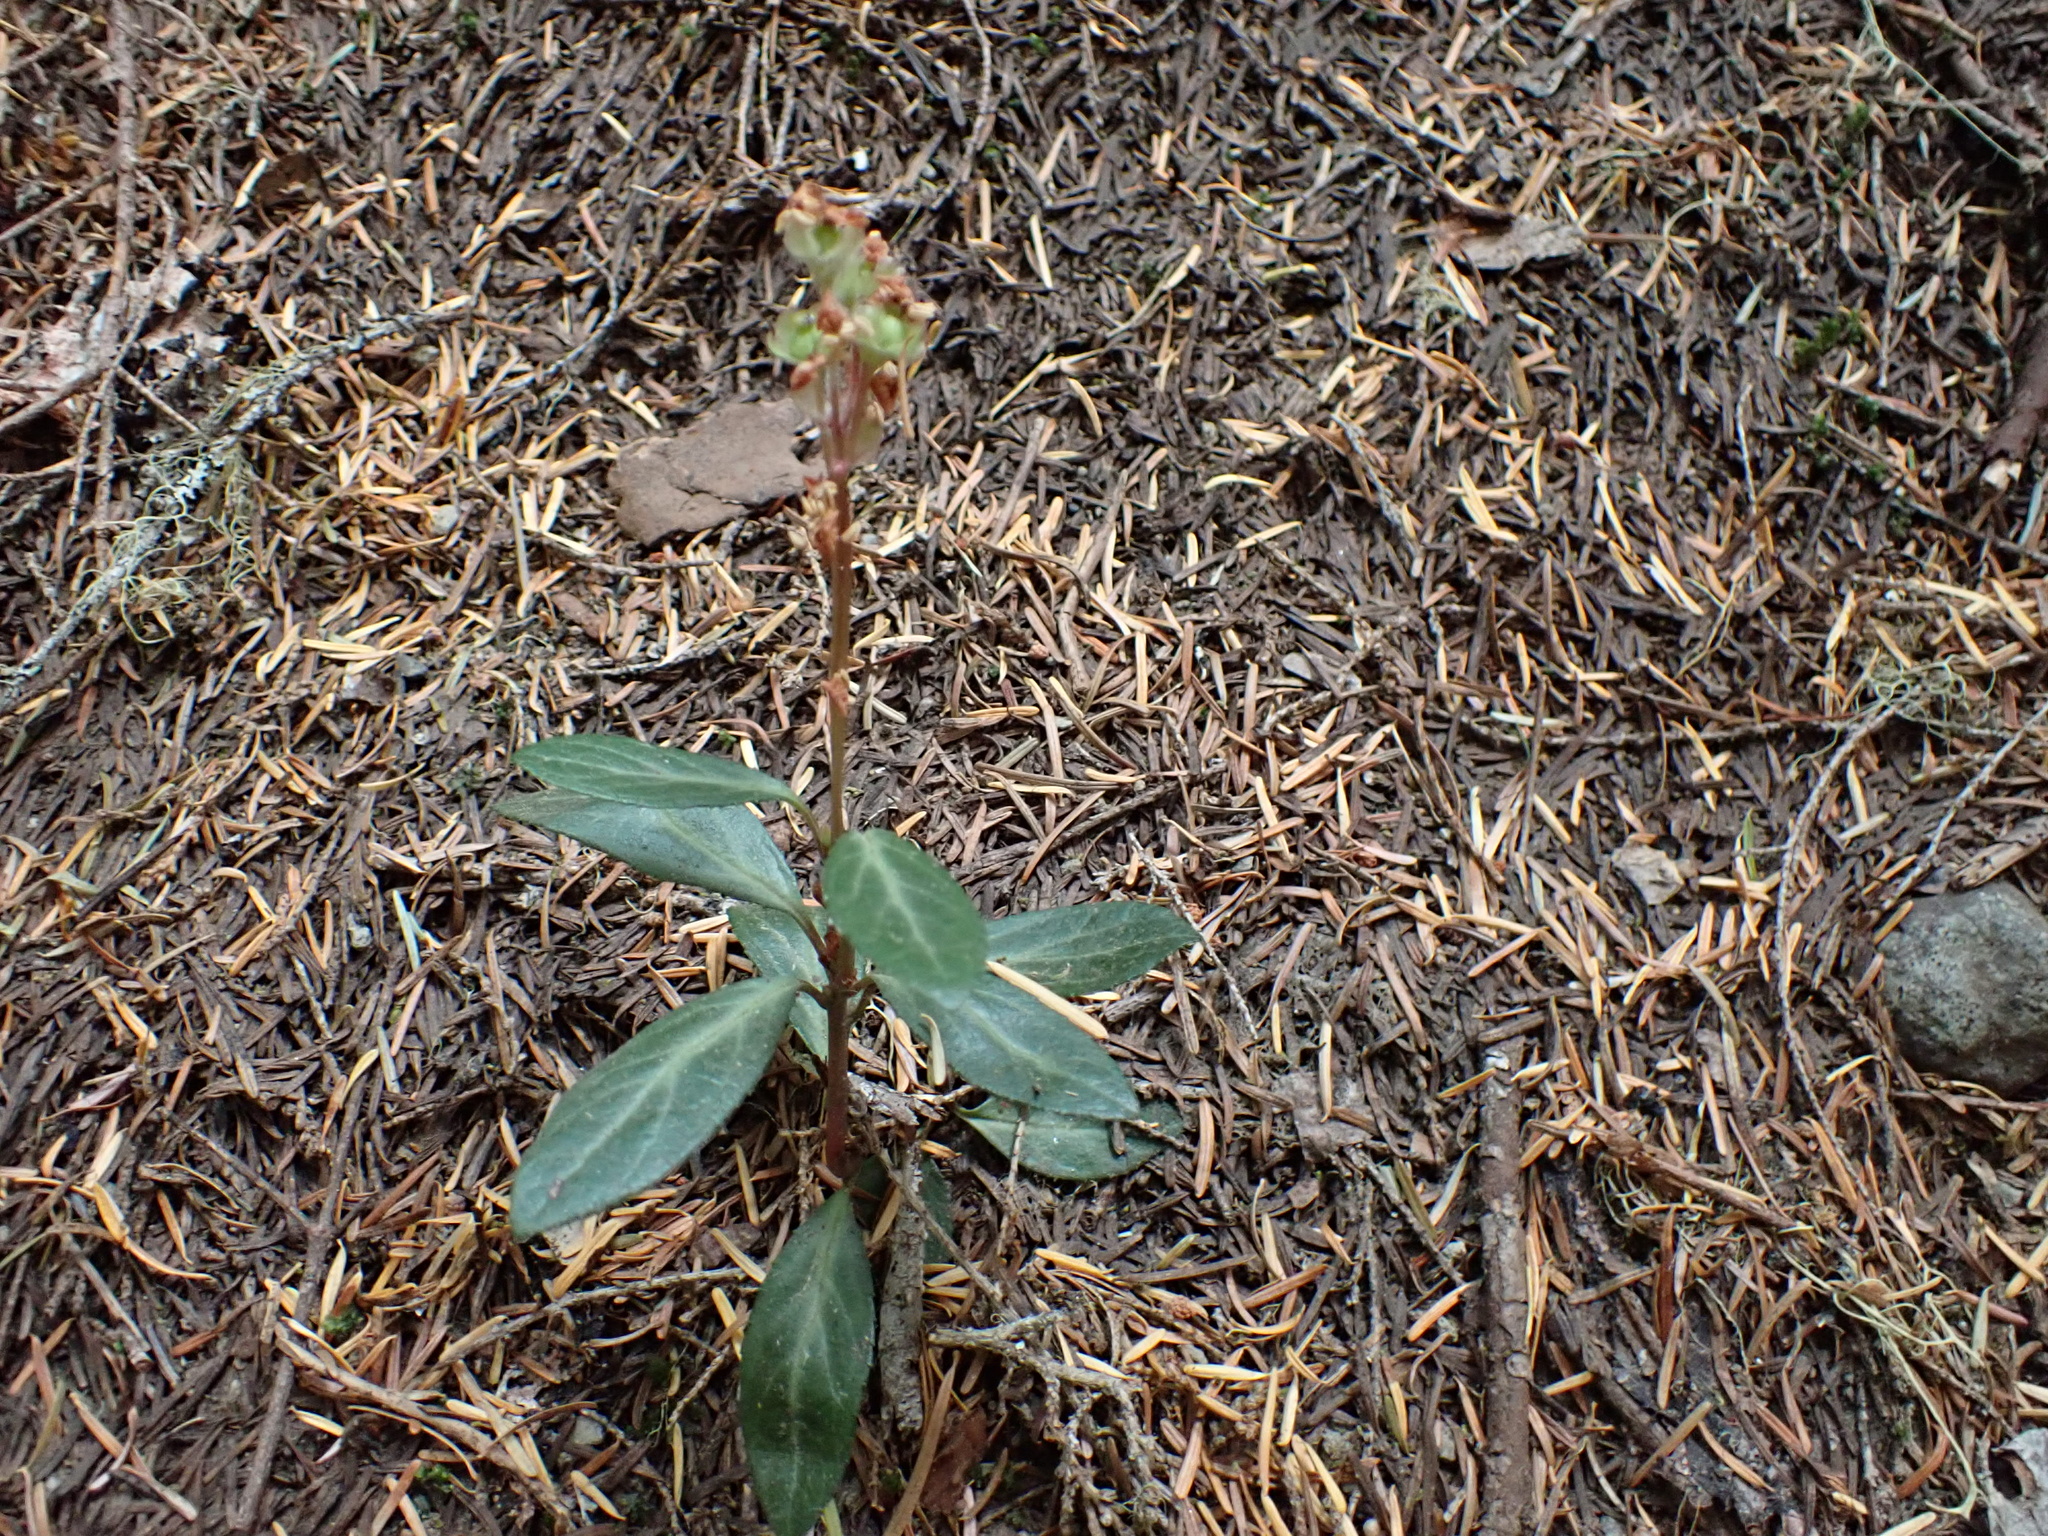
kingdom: Plantae
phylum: Tracheophyta
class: Magnoliopsida
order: Ericales
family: Ericaceae
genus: Chimaphila
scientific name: Chimaphila menziesii
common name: Menzies' pipsissewa
